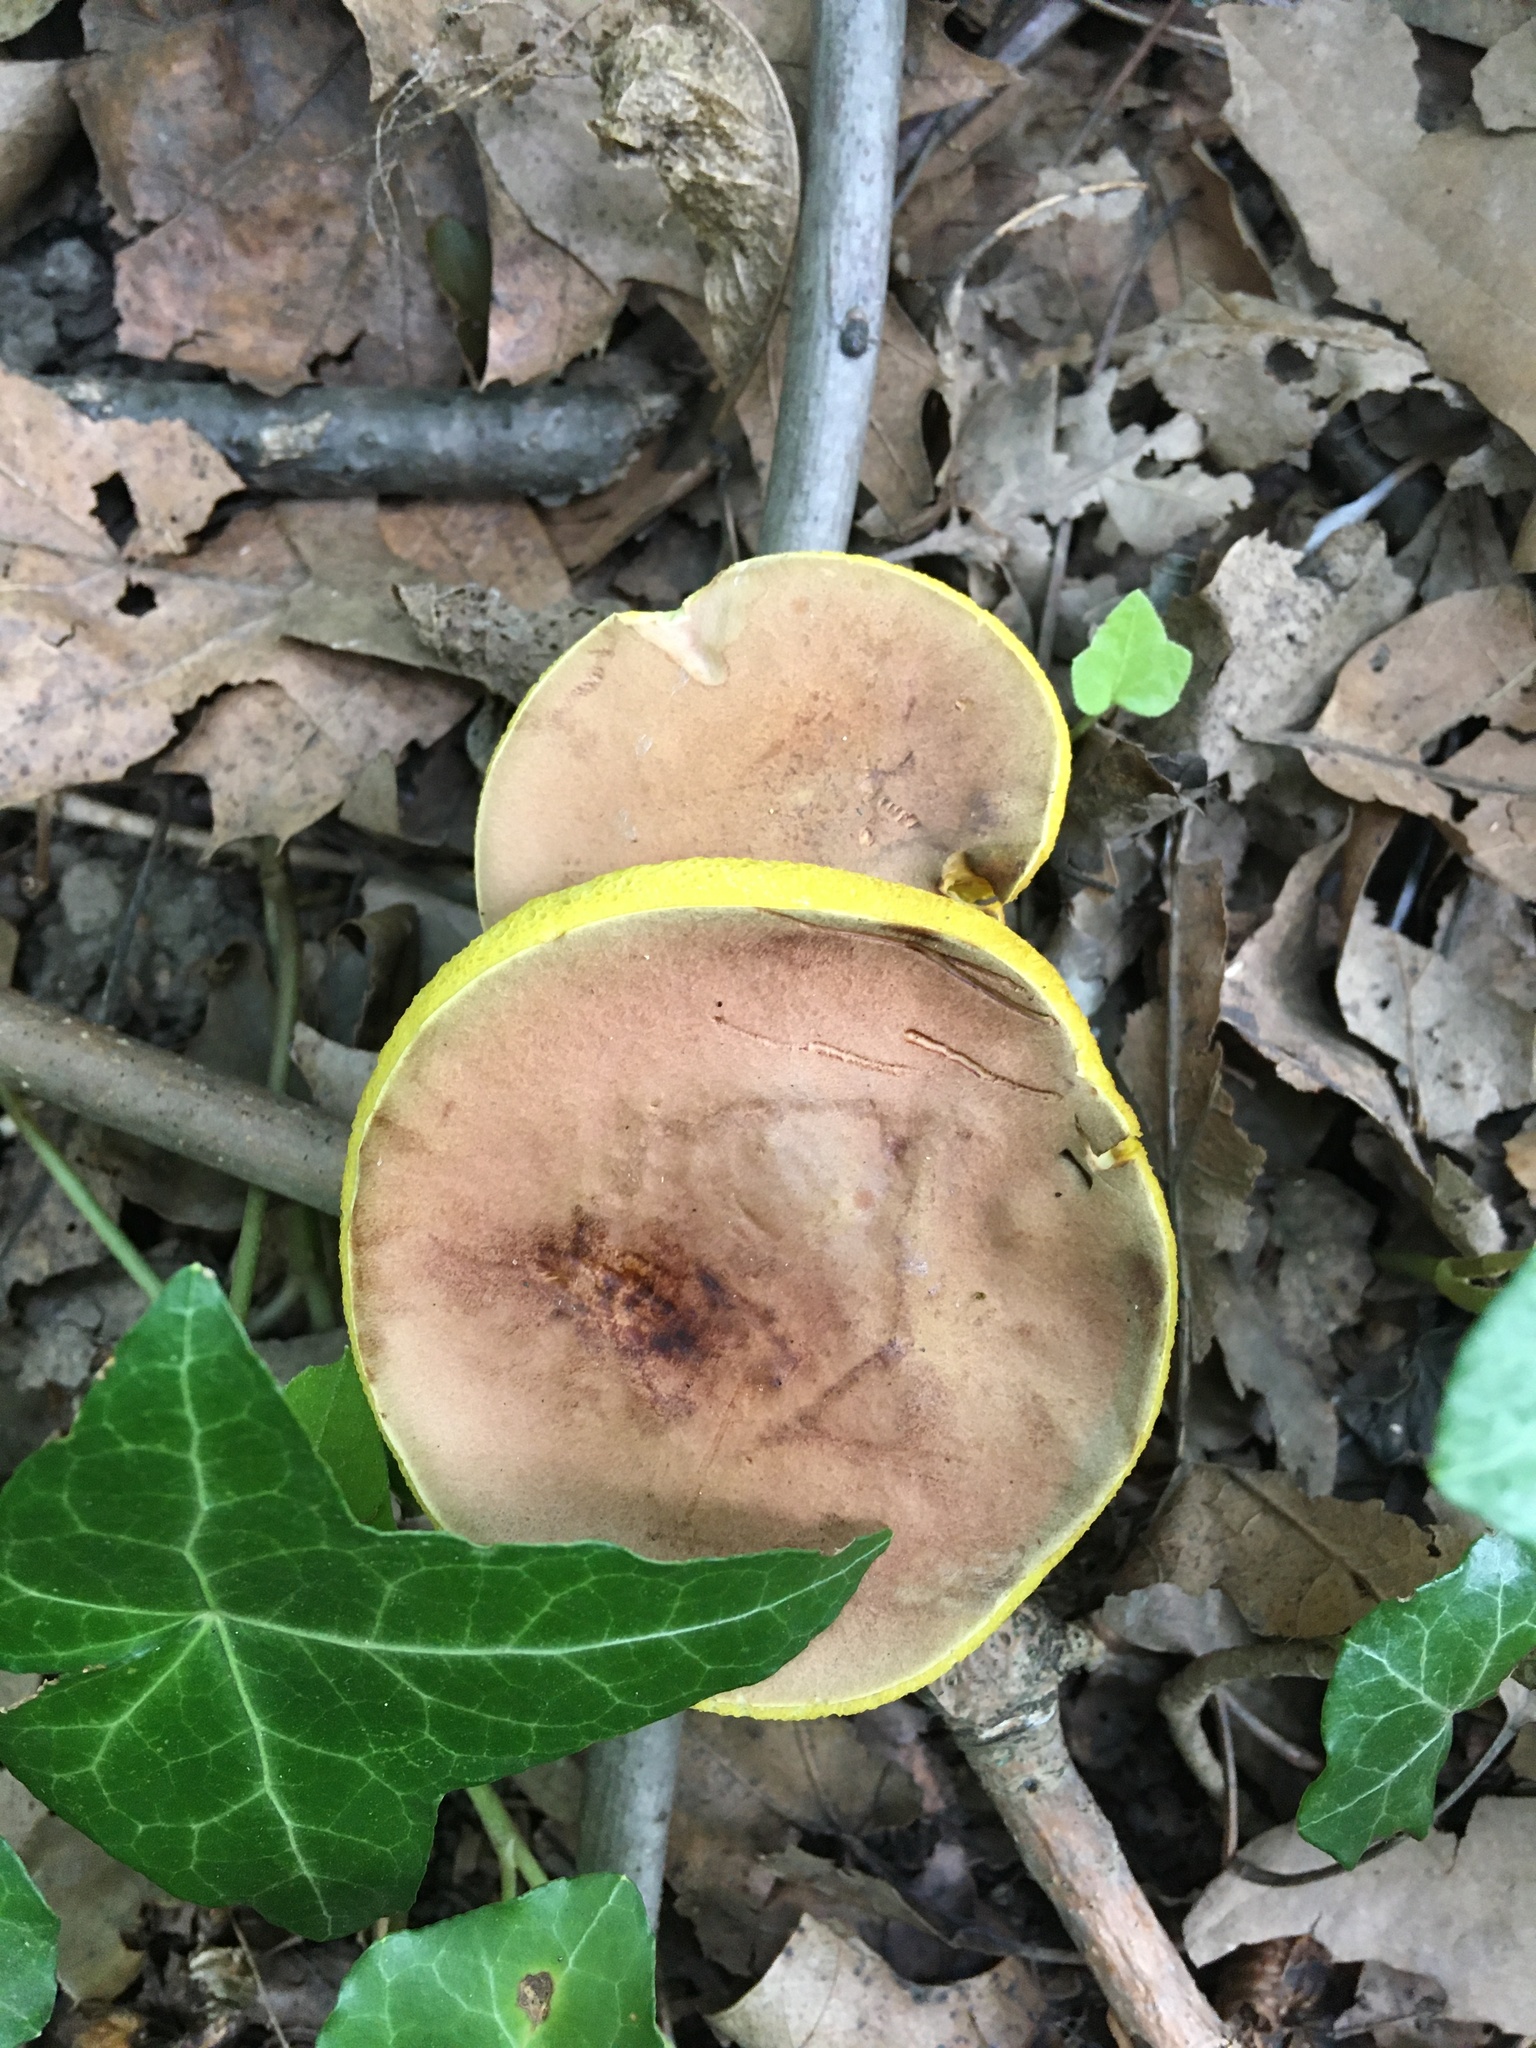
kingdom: Fungi
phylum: Basidiomycota
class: Agaricomycetes
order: Boletales
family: Boletaceae
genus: Aureoboletus
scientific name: Aureoboletus innixus
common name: Clustered brown bolete
